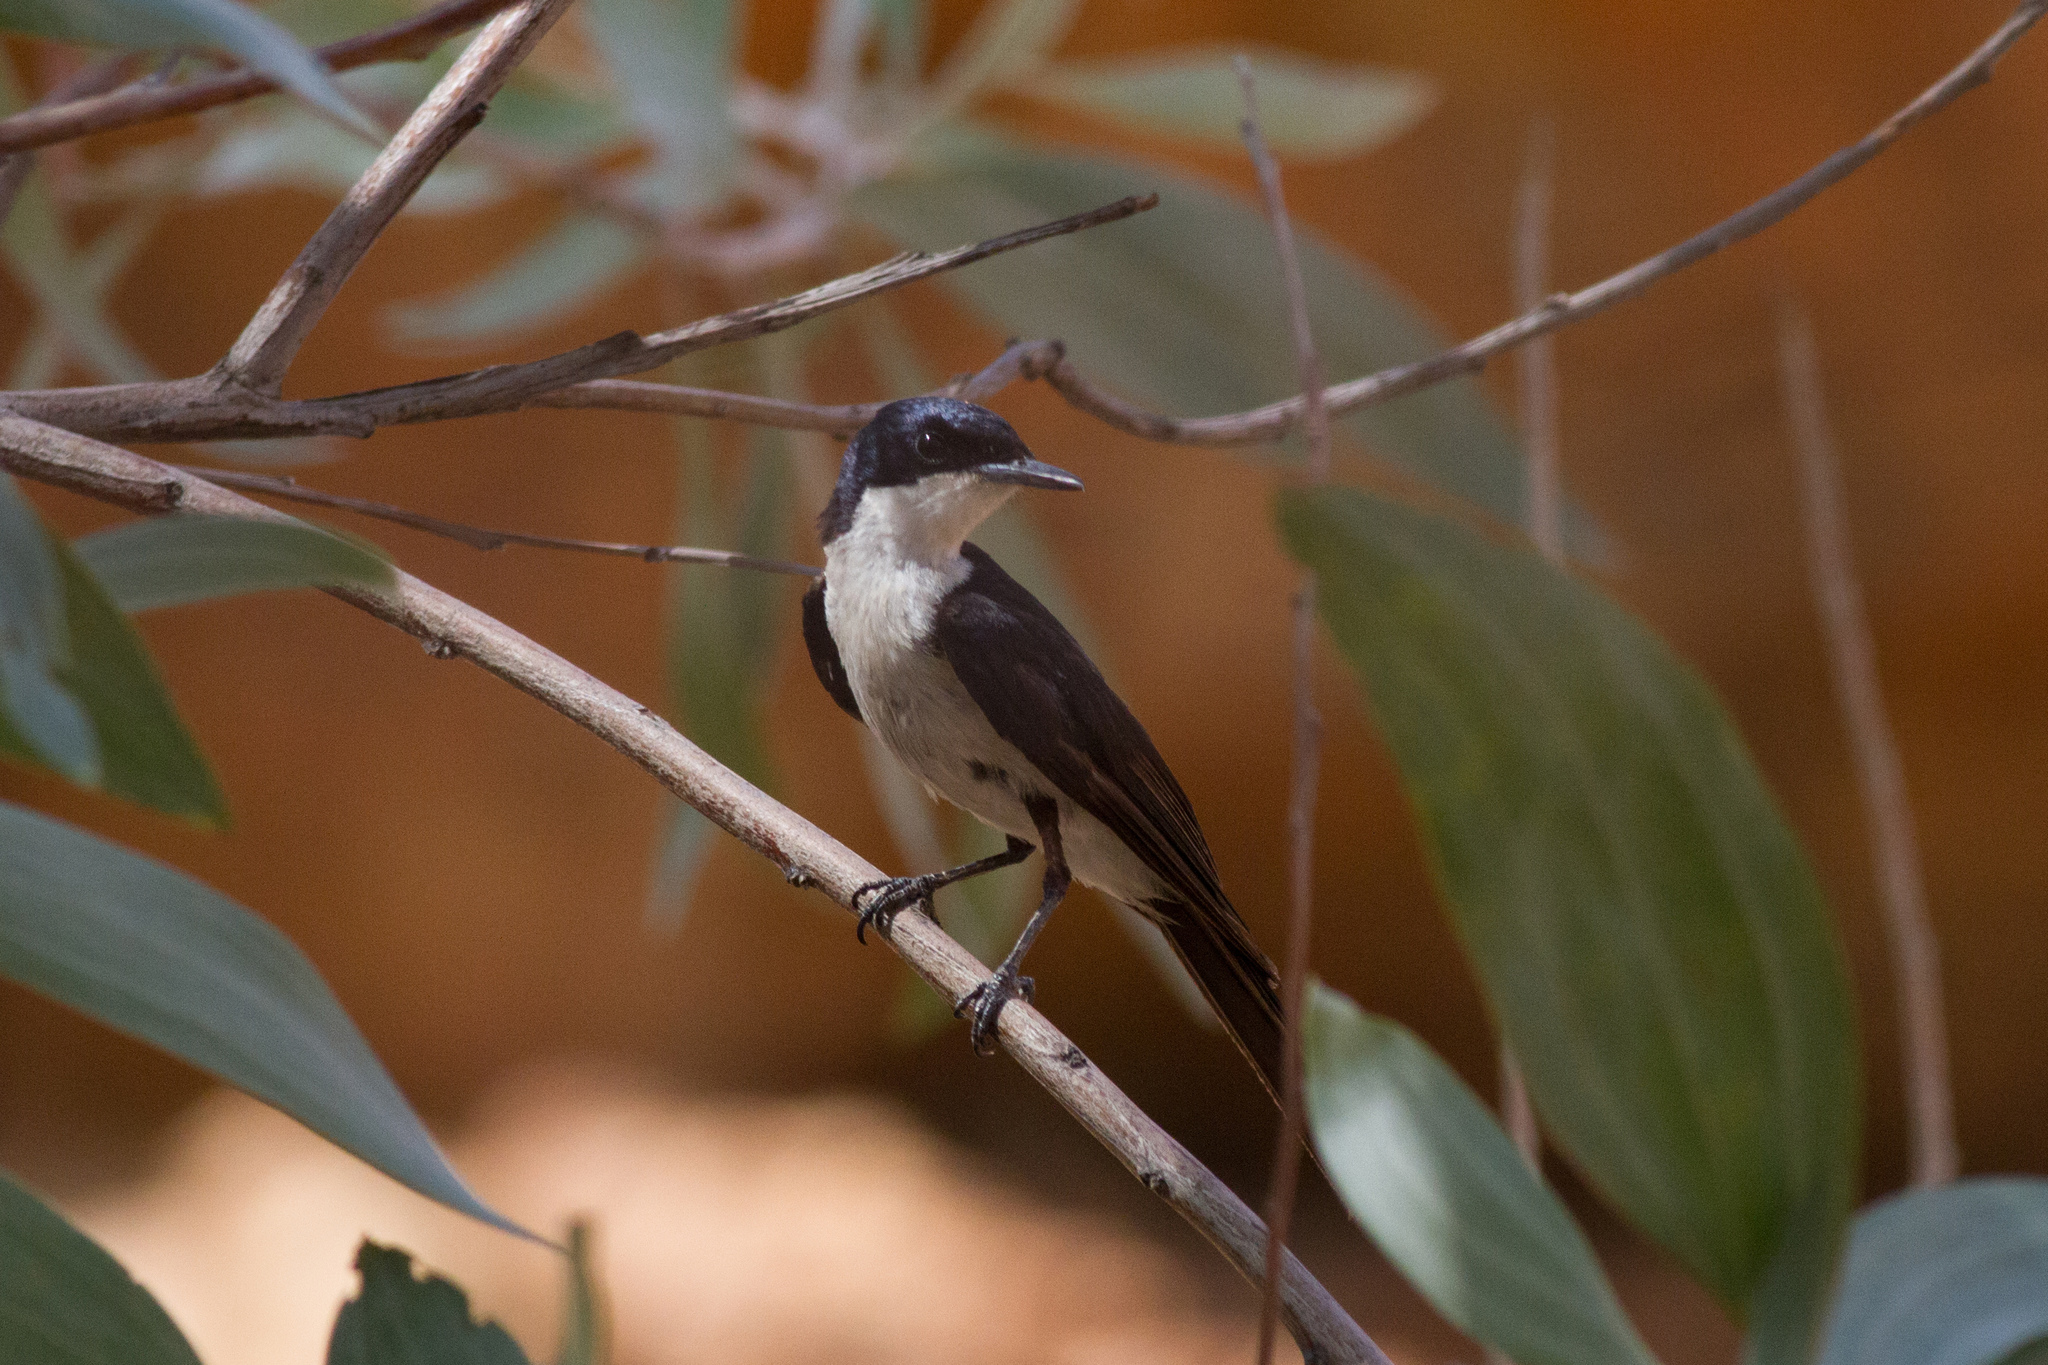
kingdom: Animalia
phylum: Chordata
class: Aves
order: Passeriformes
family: Monarchidae
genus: Myiagra
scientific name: Myiagra inquieta
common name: Restless flycatcher
